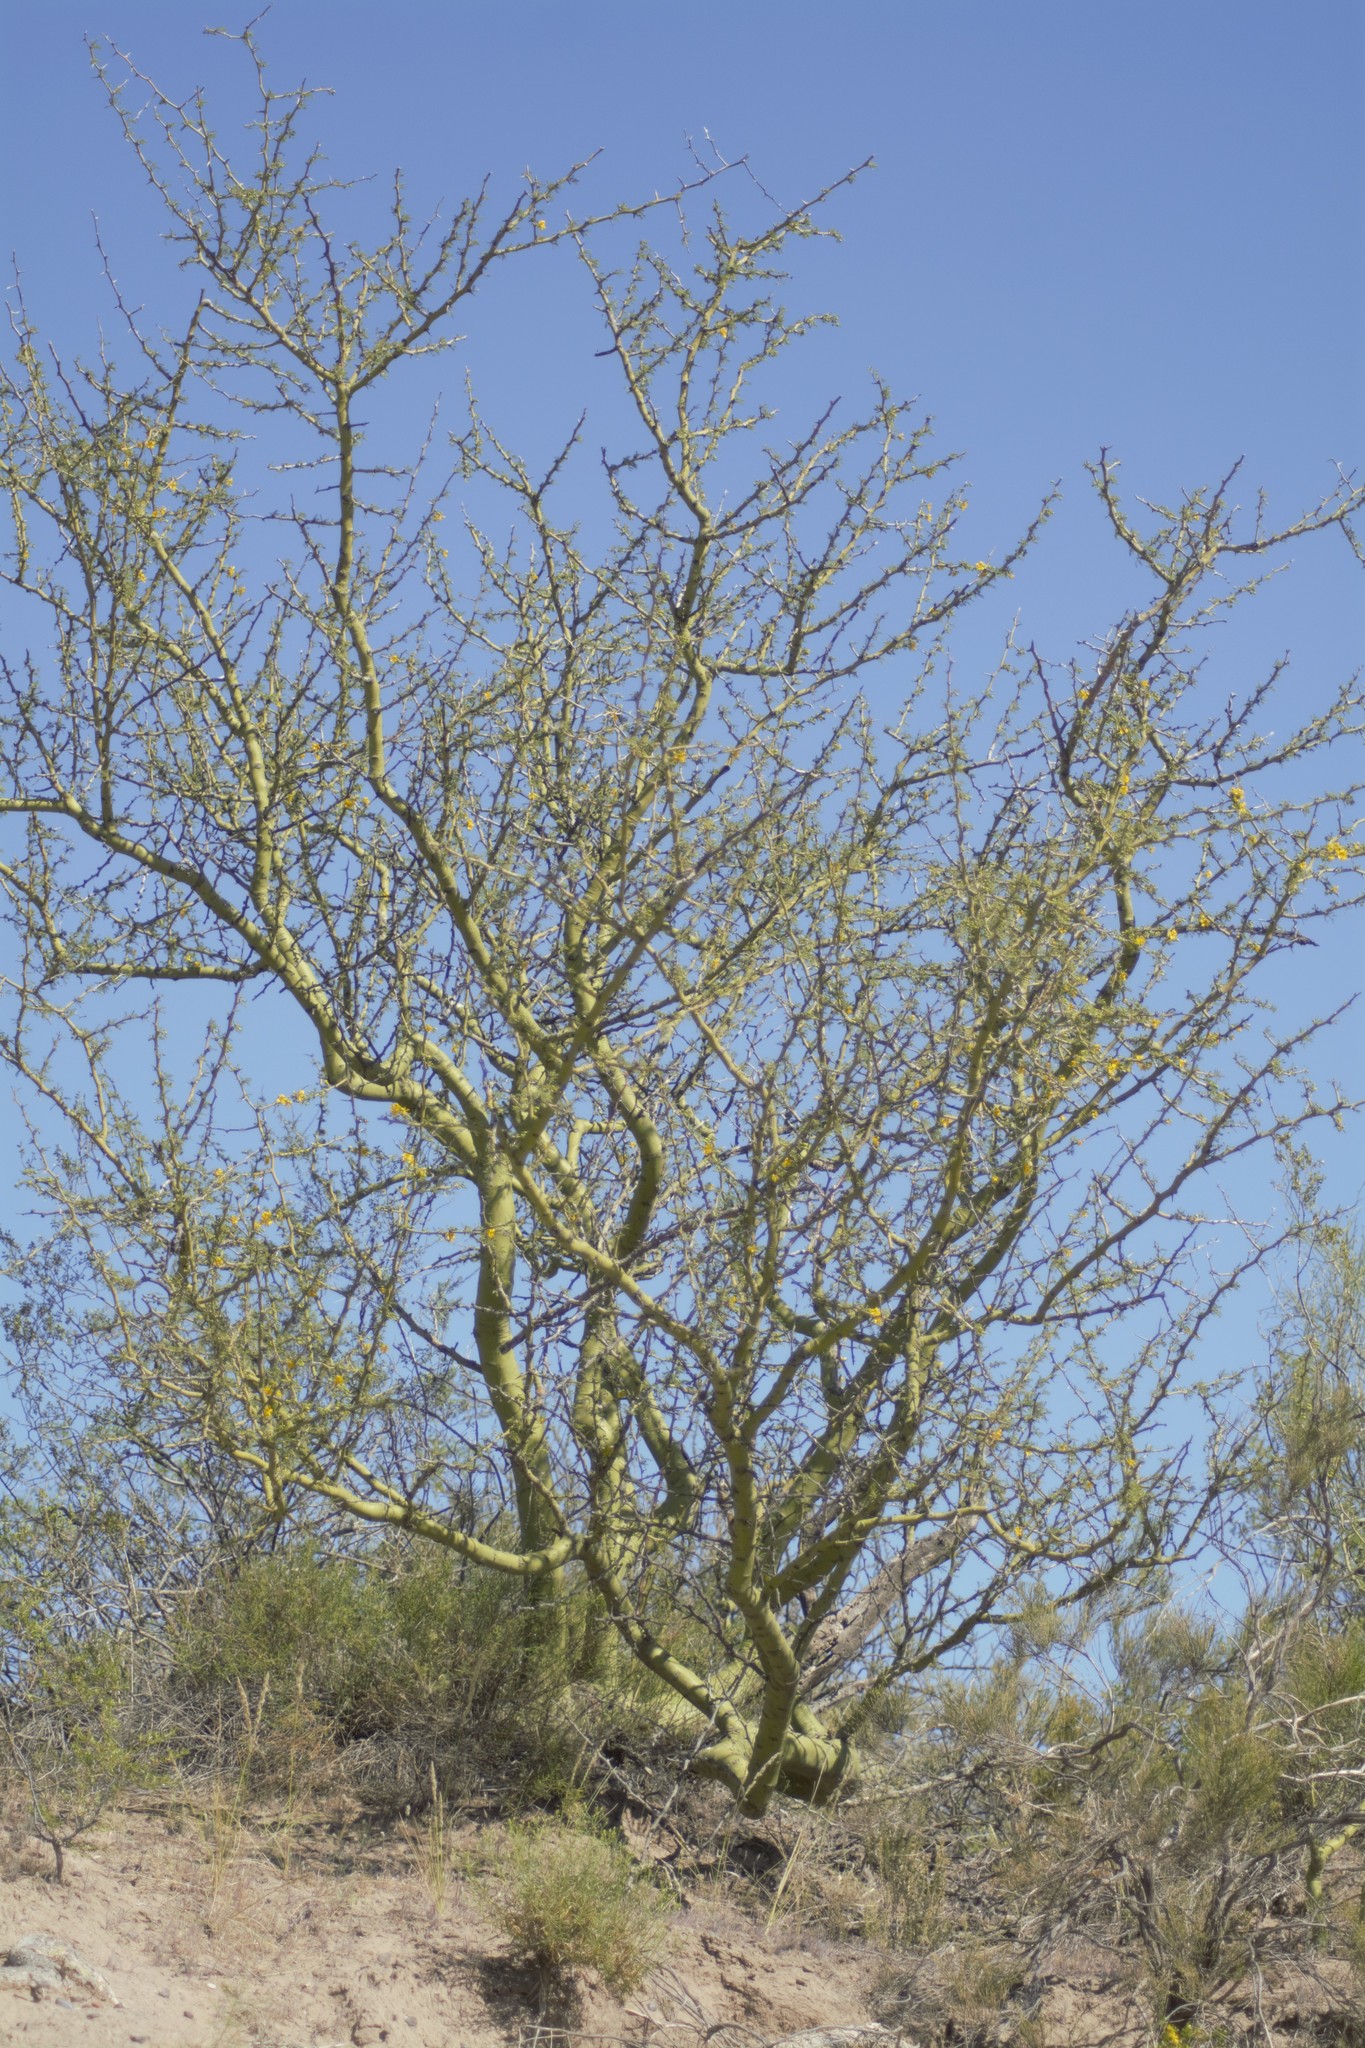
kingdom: Plantae
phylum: Tracheophyta
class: Magnoliopsida
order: Fabales
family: Fabaceae
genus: Parkinsonia
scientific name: Parkinsonia praecox
